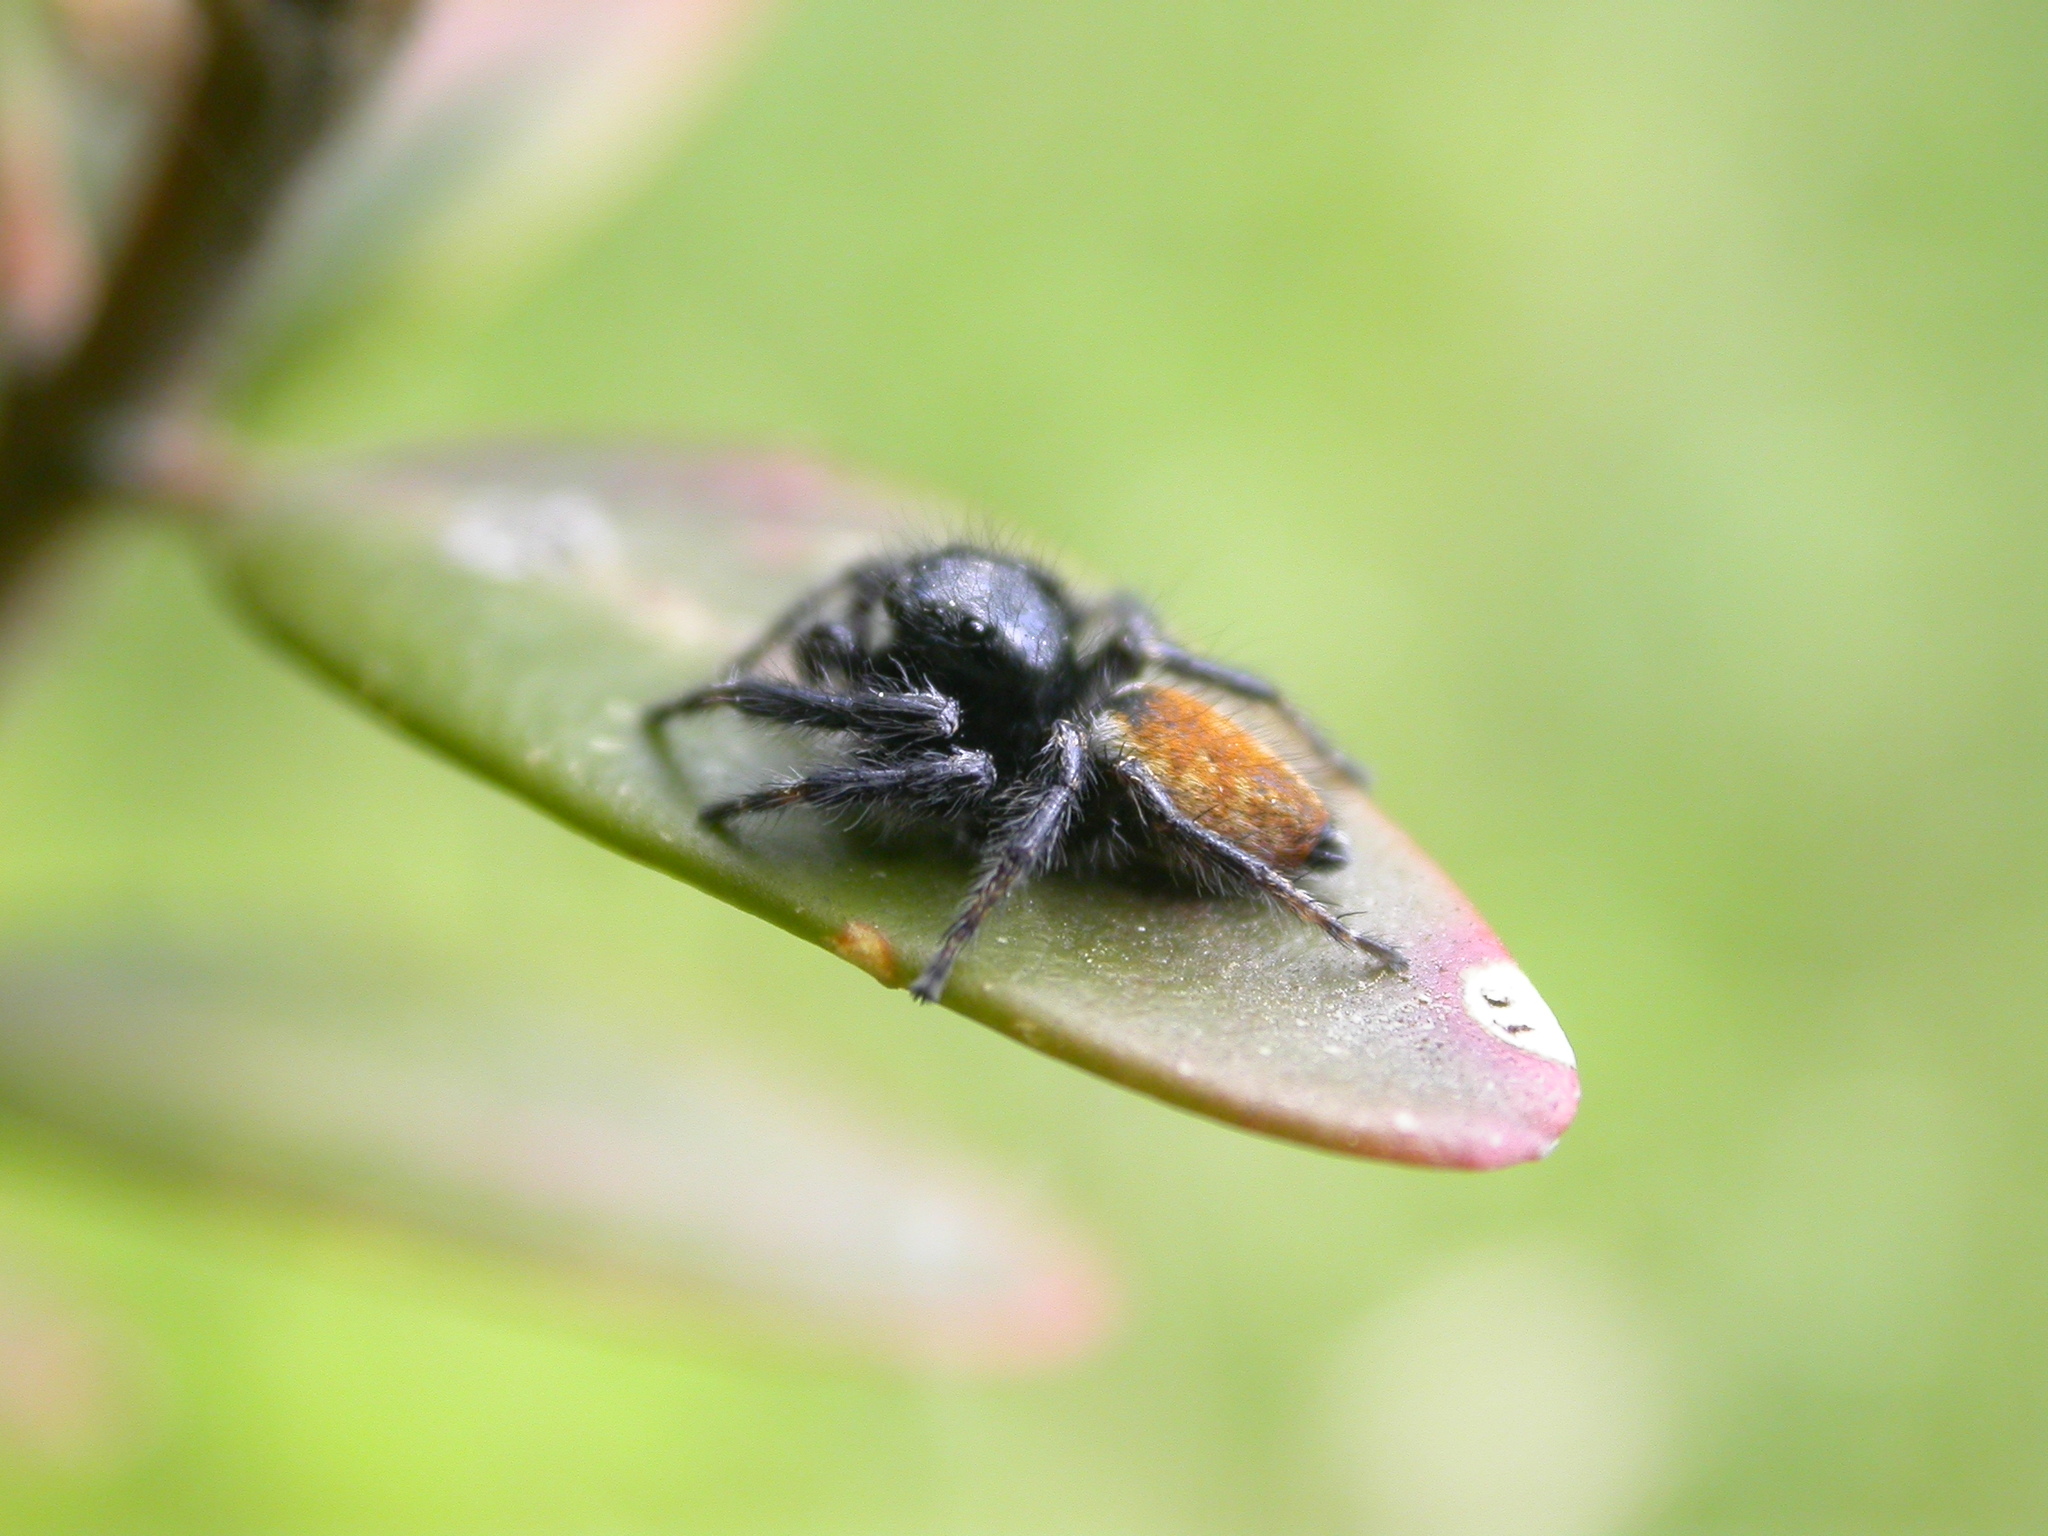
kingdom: Animalia
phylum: Arthropoda
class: Arachnida
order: Araneae
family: Salticidae
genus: Carrhotus
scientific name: Carrhotus xanthogramma
